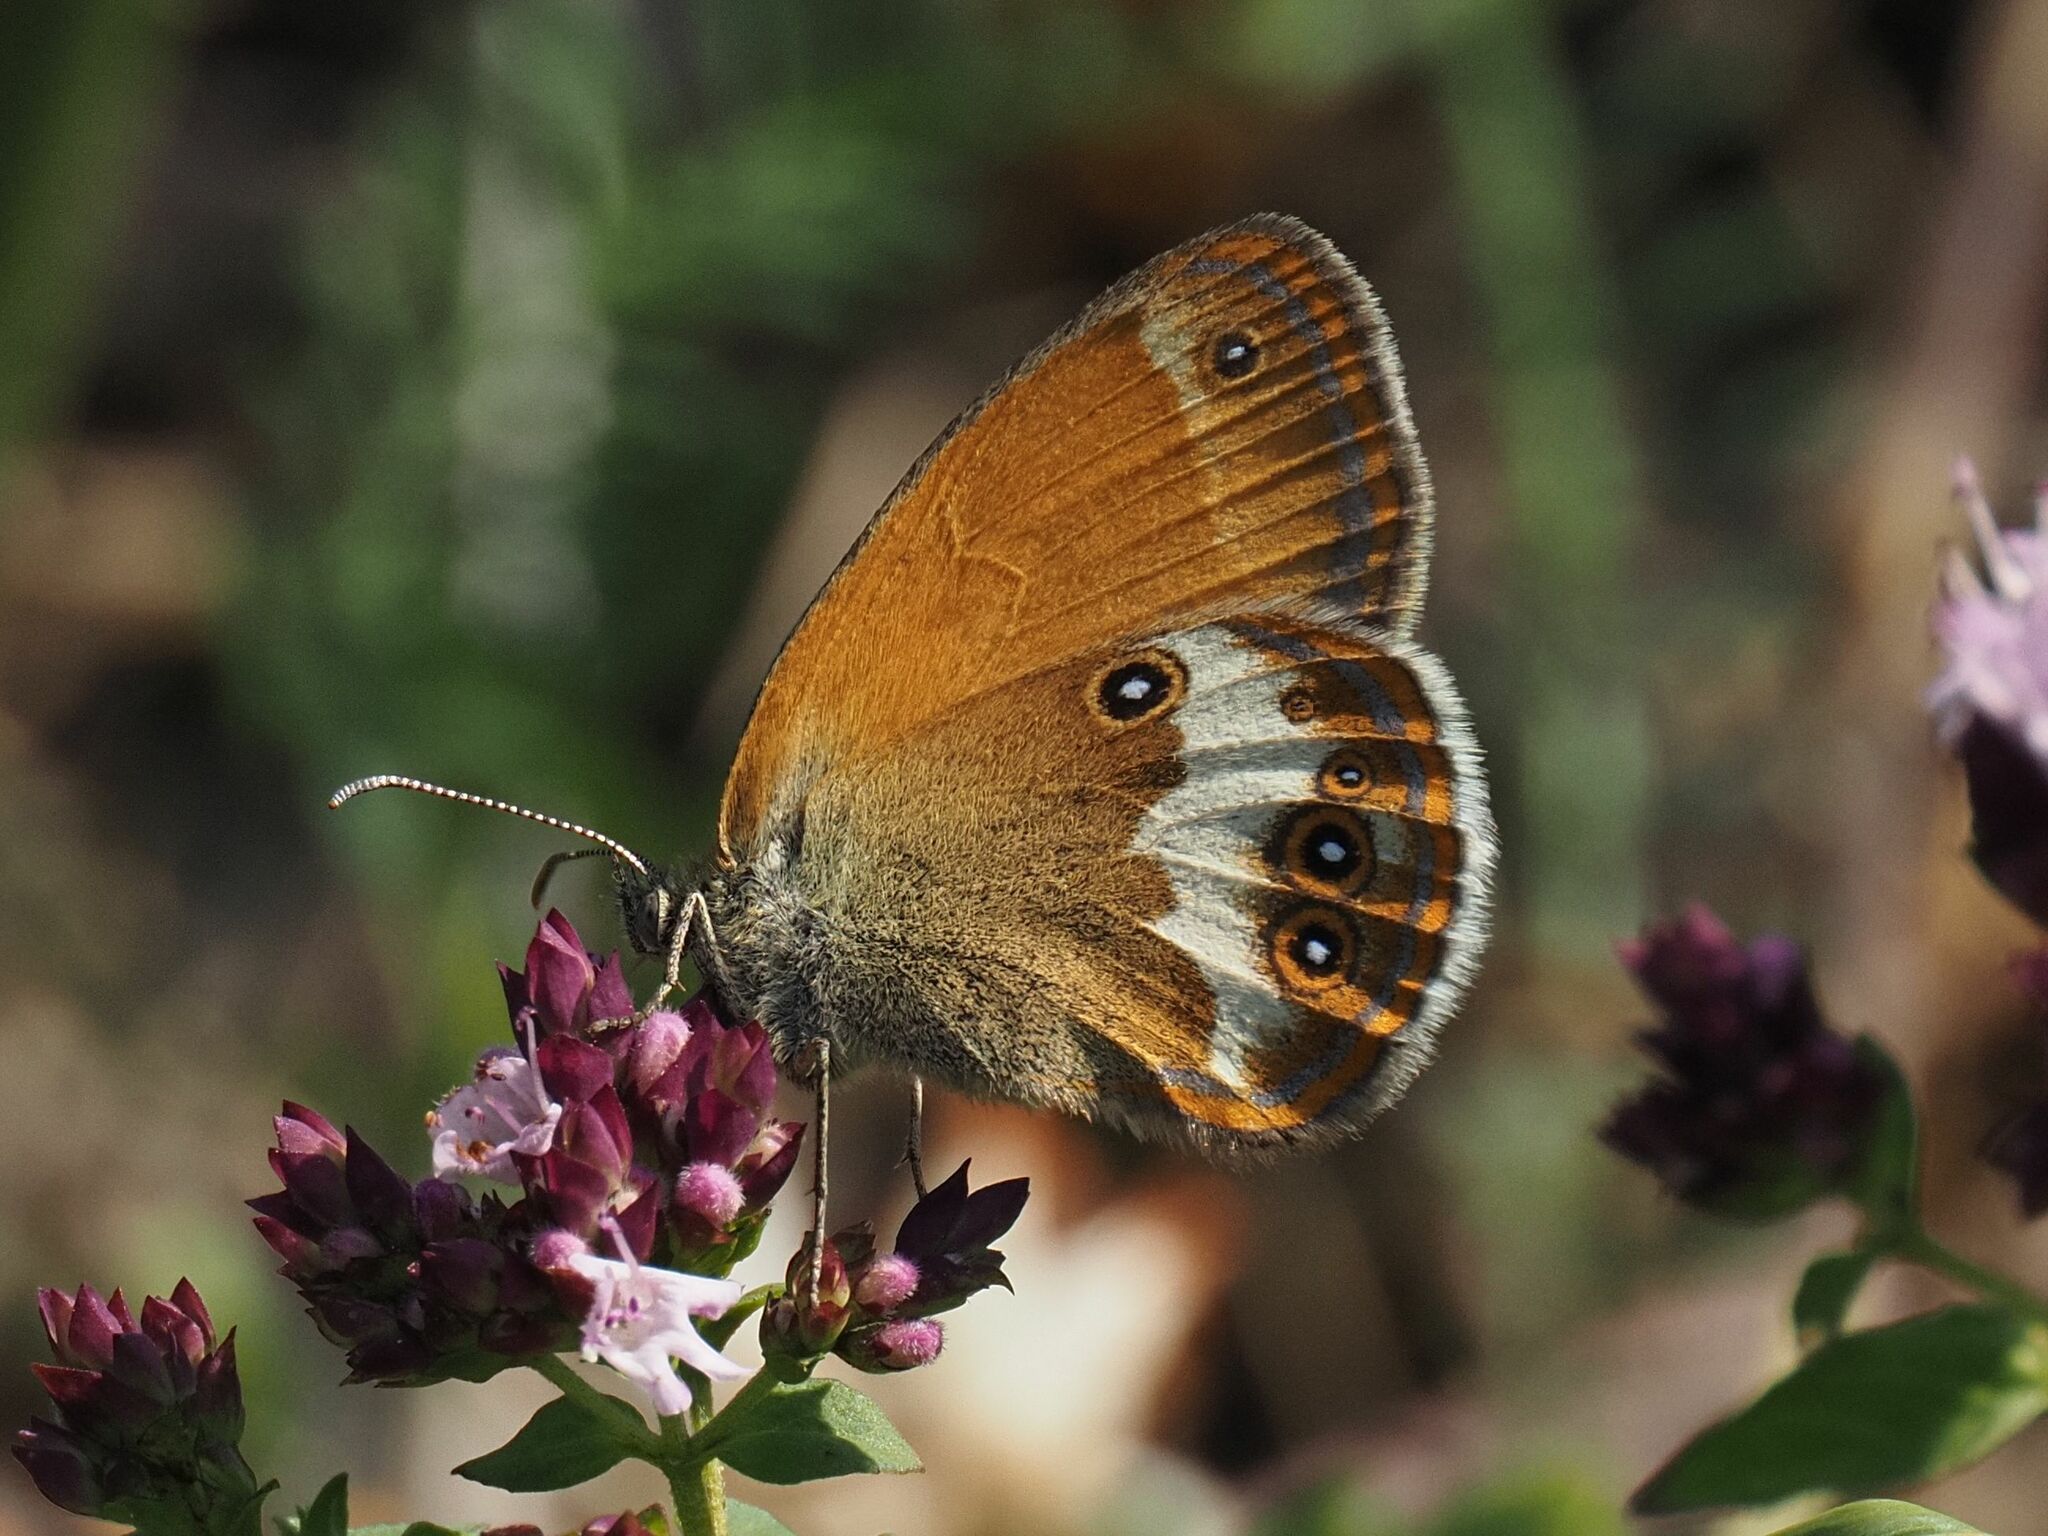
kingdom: Animalia
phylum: Arthropoda
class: Insecta
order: Lepidoptera
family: Nymphalidae
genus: Coenonympha
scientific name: Coenonympha arcania
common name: Pearly heath
